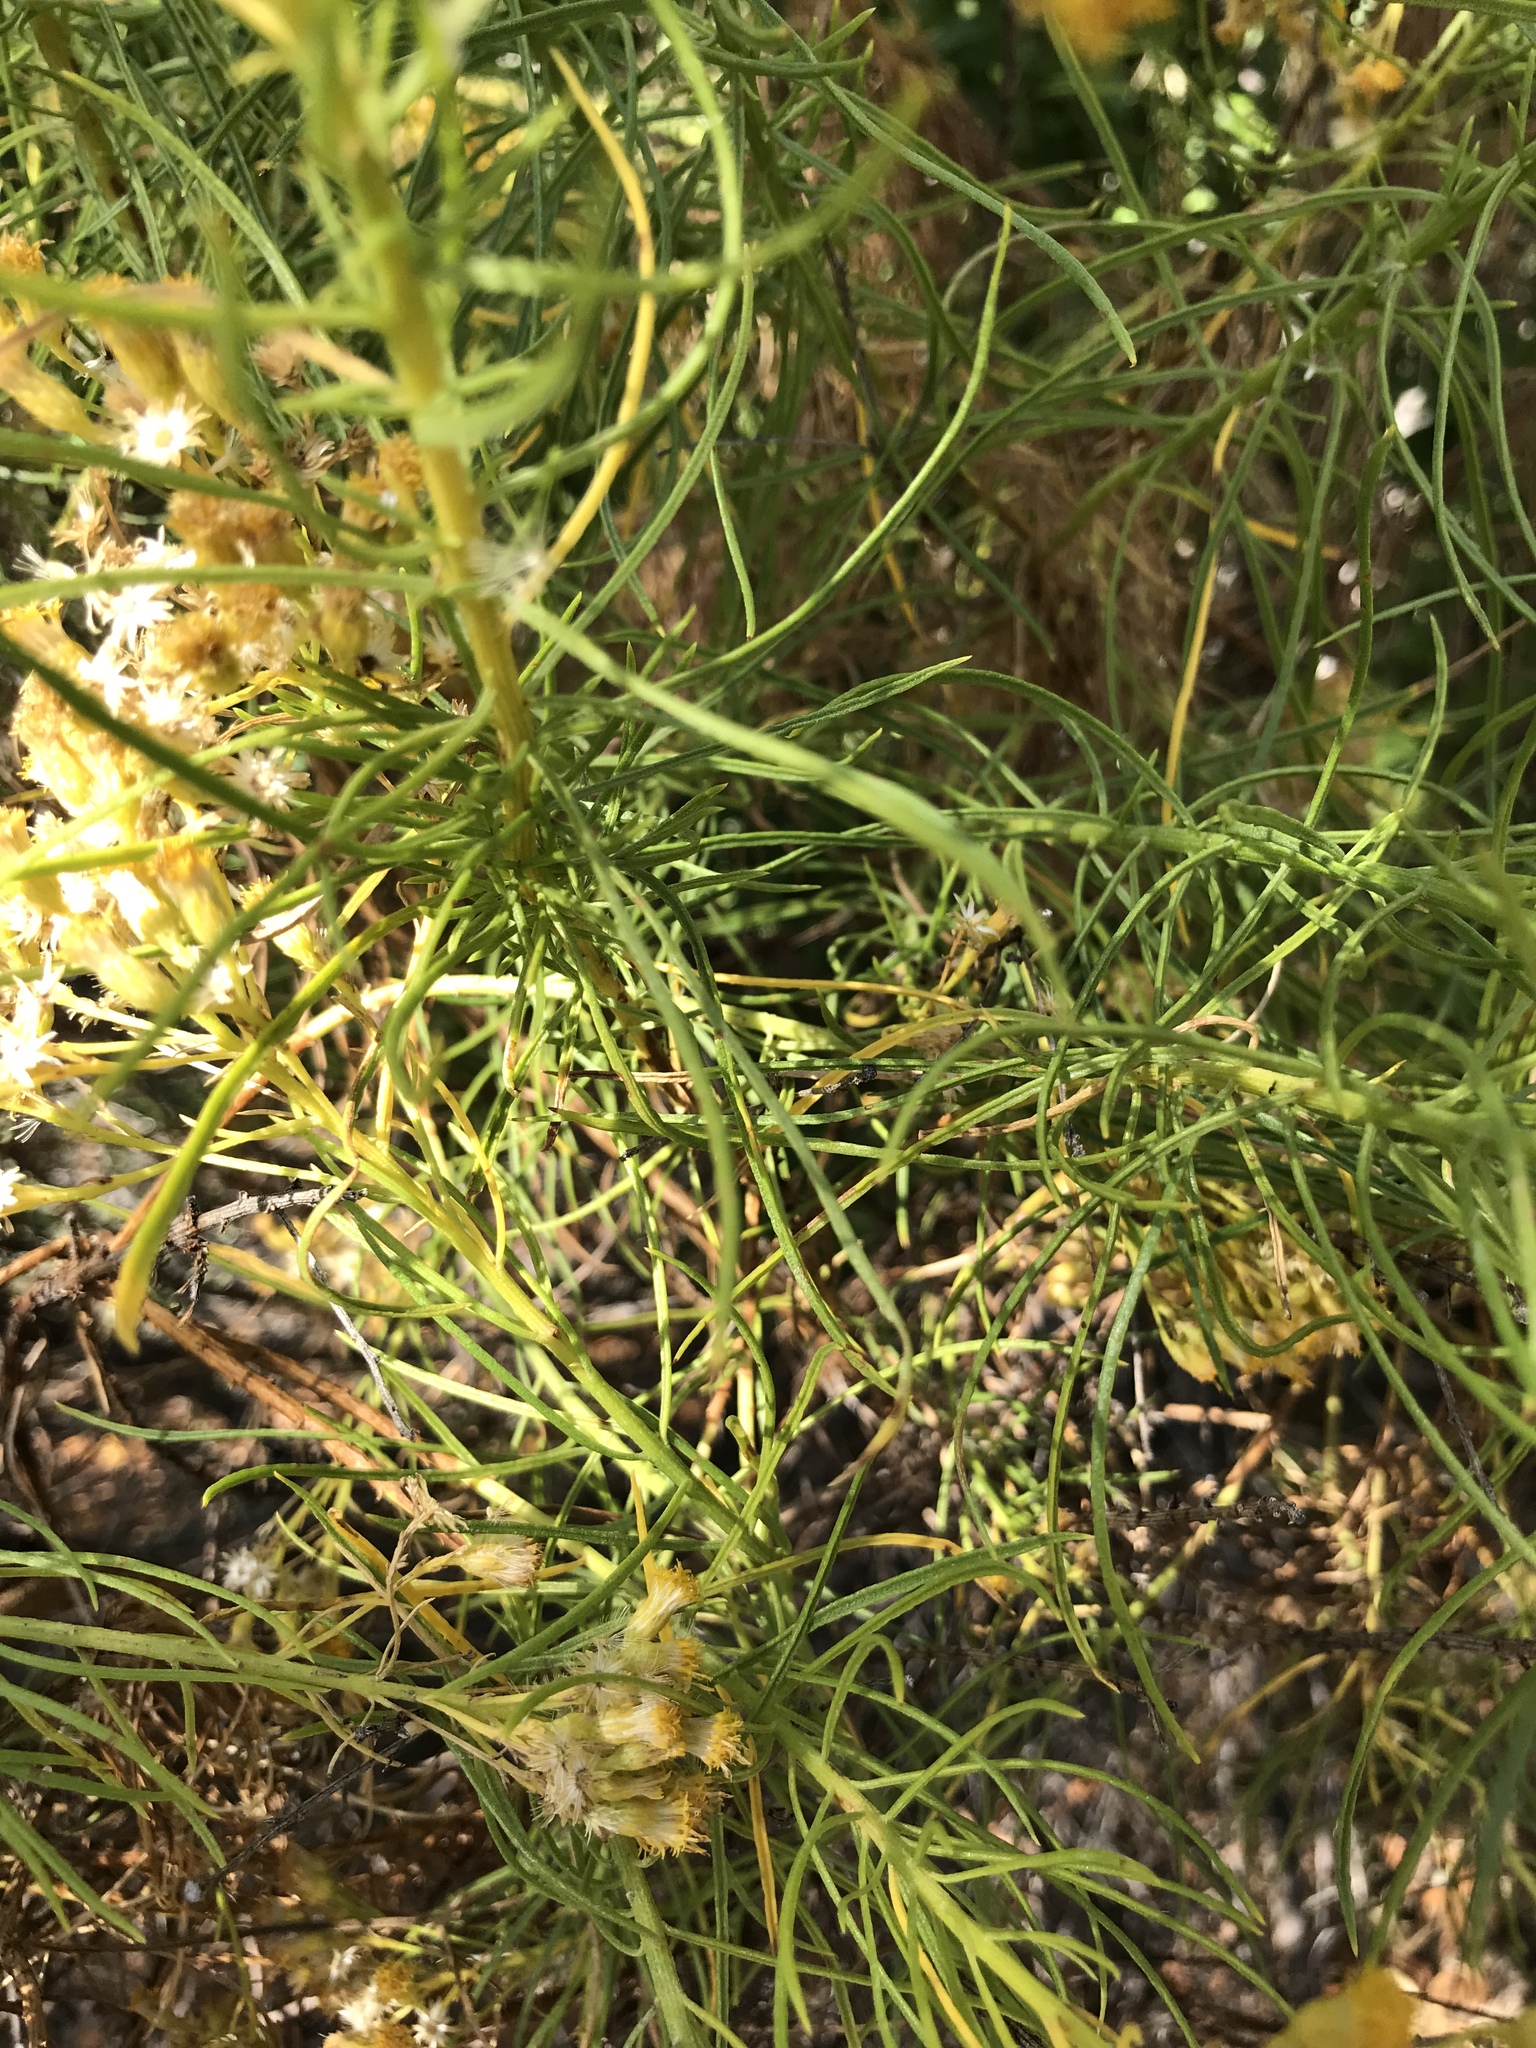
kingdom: Plantae
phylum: Tracheophyta
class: Magnoliopsida
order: Asterales
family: Asteraceae
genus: Ericameria
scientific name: Ericameria arborescens
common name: Goldenfleece
